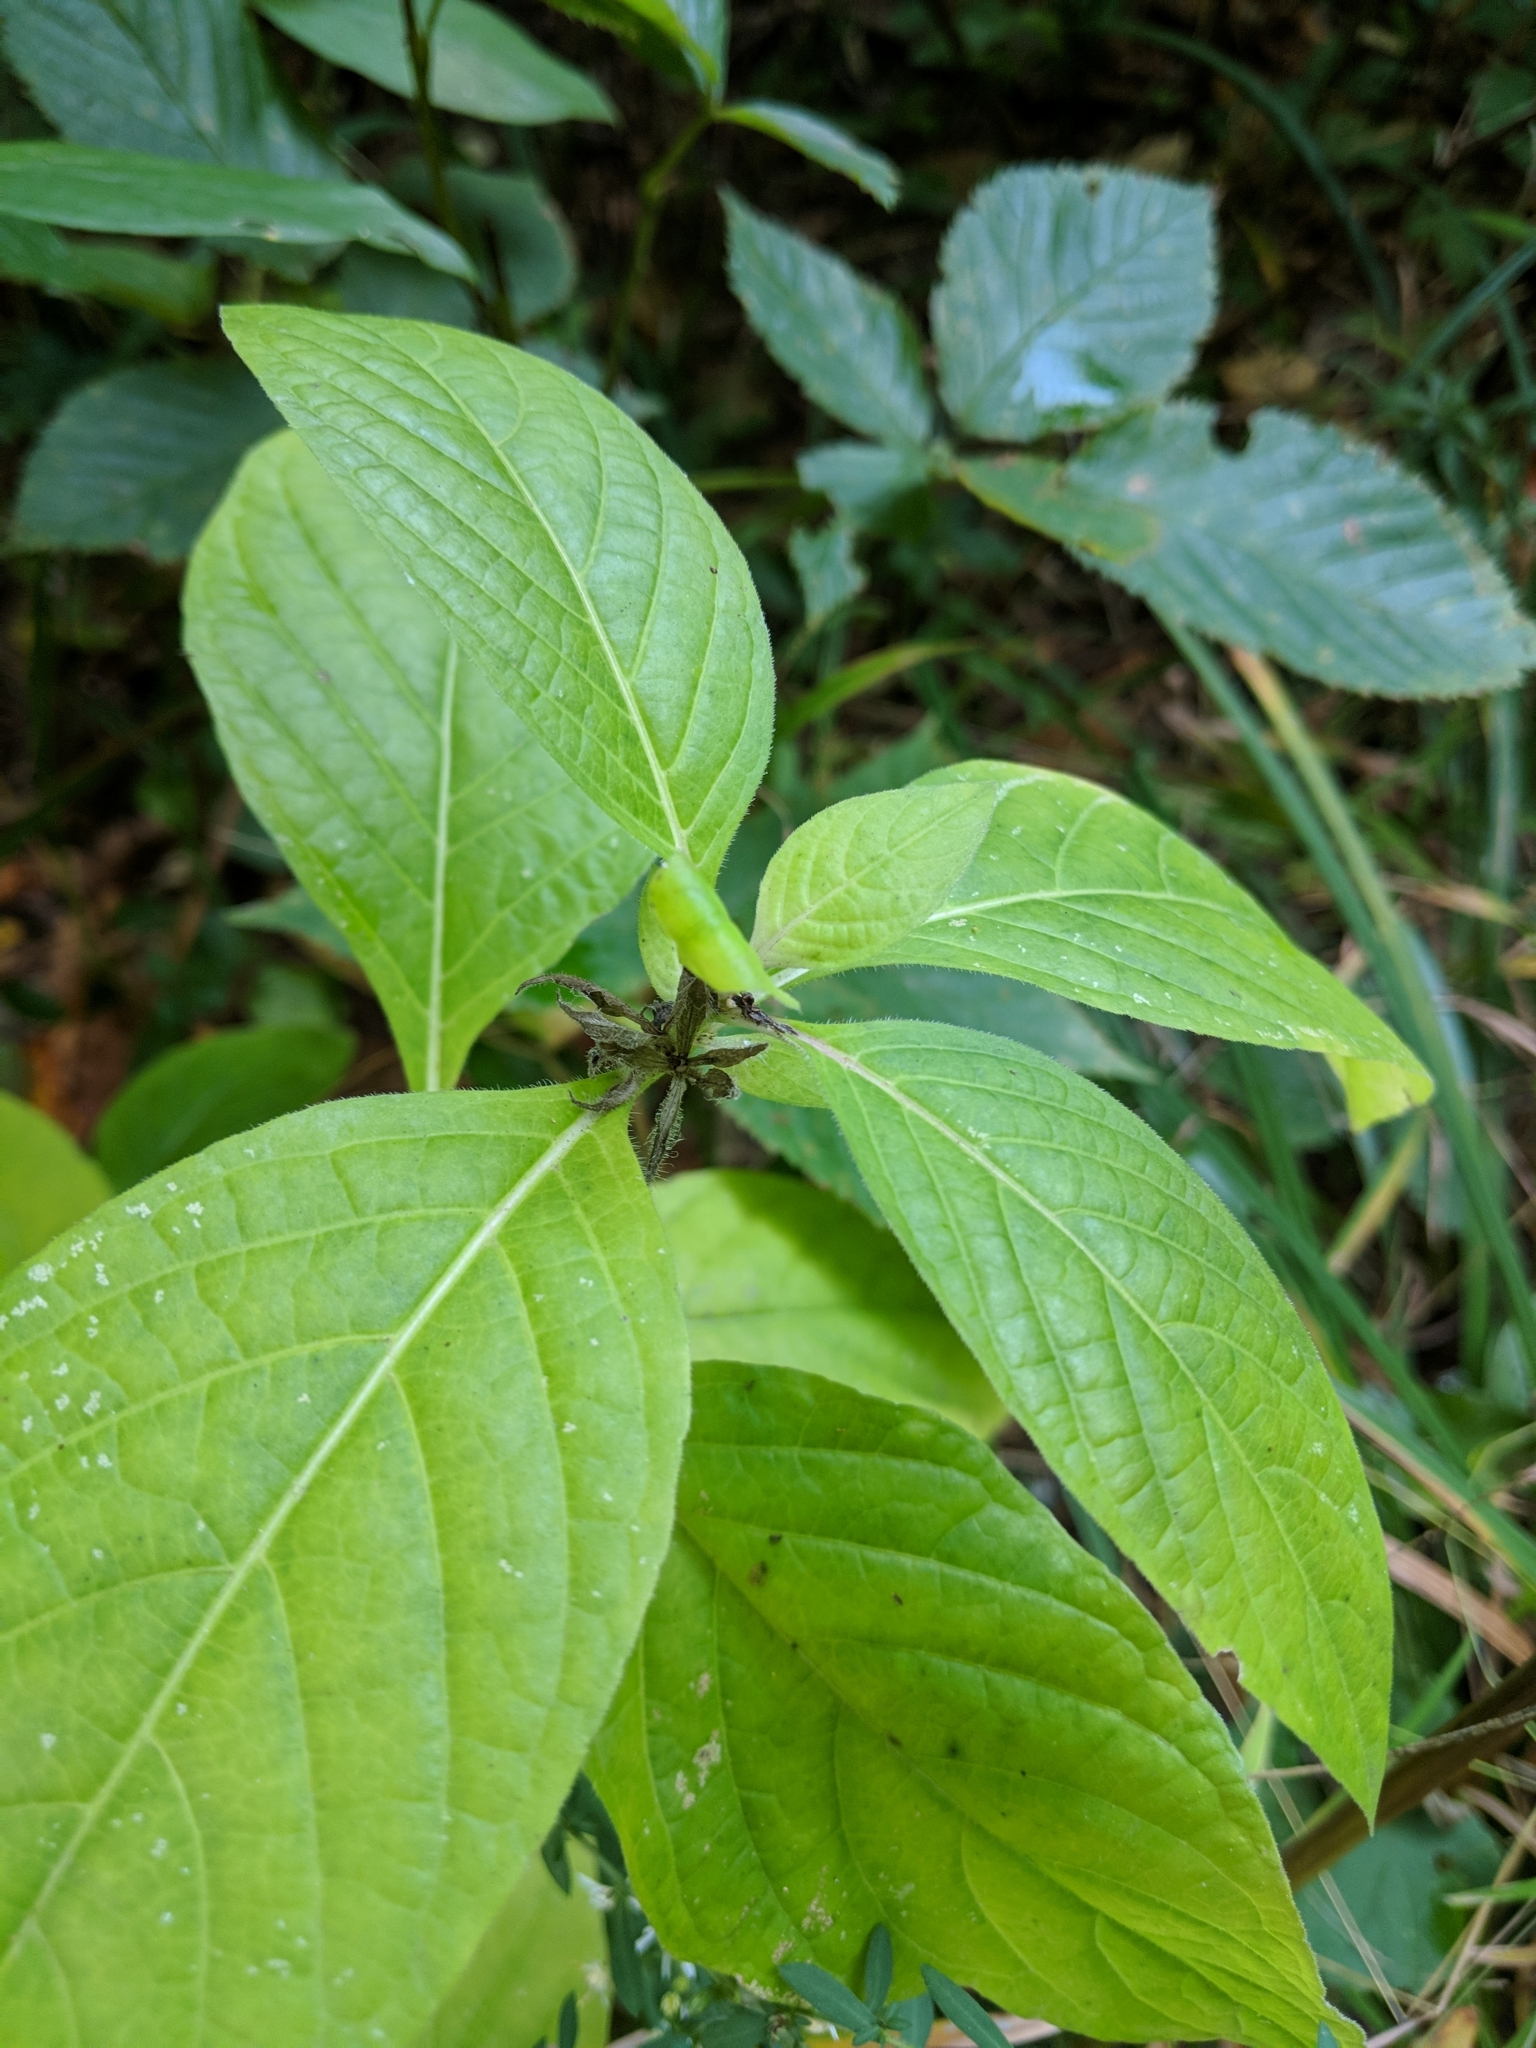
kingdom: Plantae
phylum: Tracheophyta
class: Magnoliopsida
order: Lamiales
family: Acanthaceae
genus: Ruellia
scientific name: Ruellia strepens
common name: Limestone wild petunia
